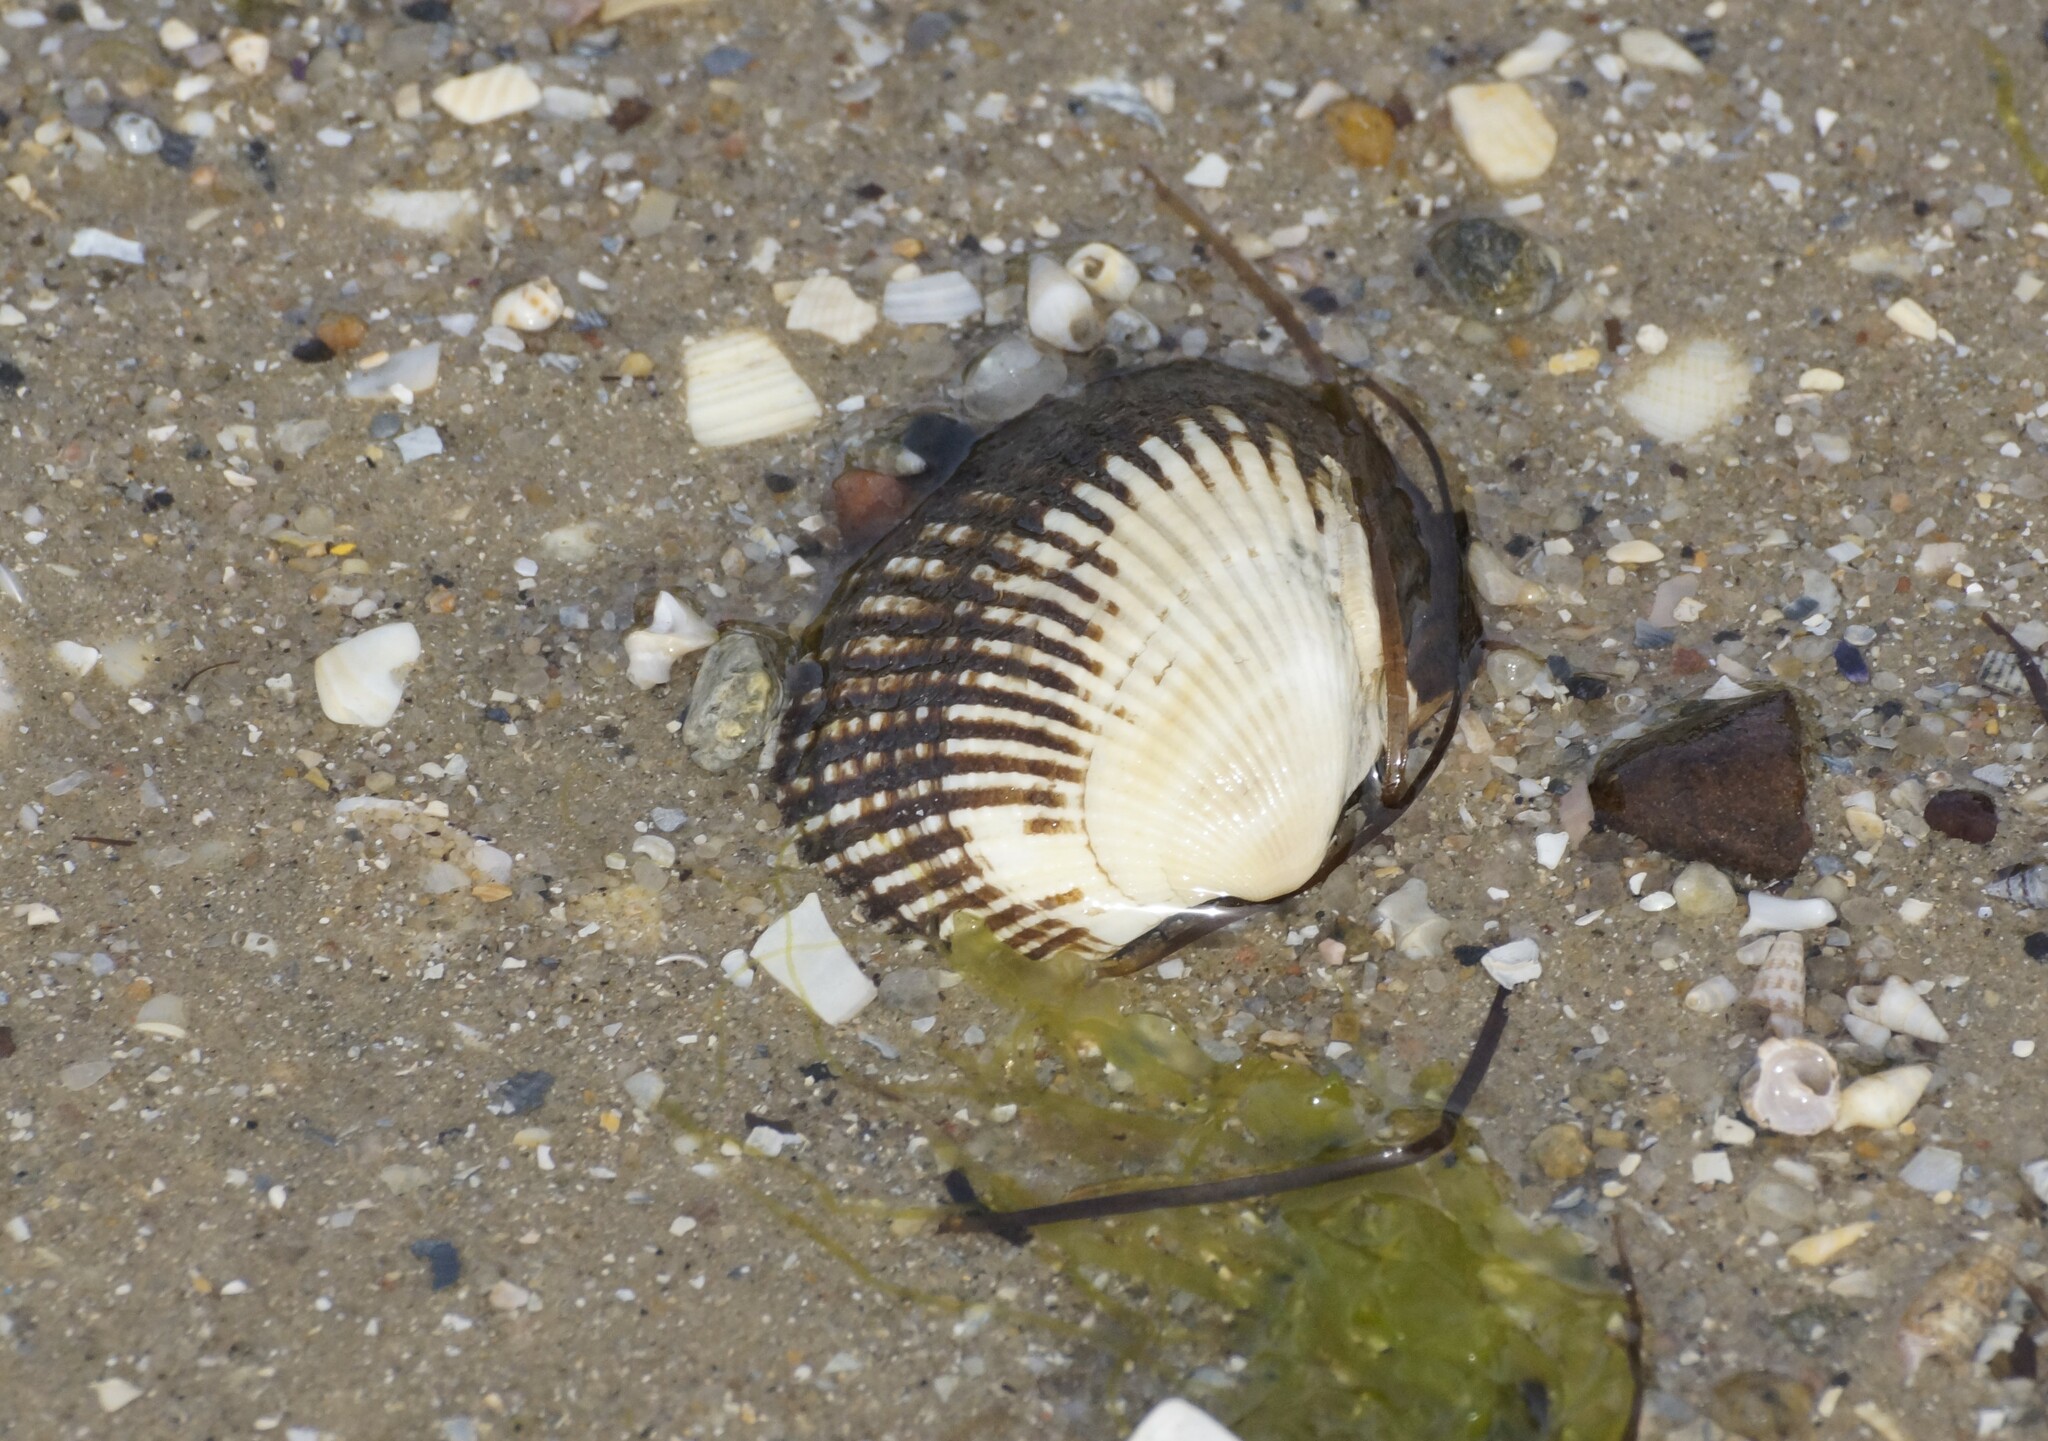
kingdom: Animalia
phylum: Mollusca
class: Bivalvia
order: Arcida
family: Arcidae
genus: Anadara
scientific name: Anadara trapezia
